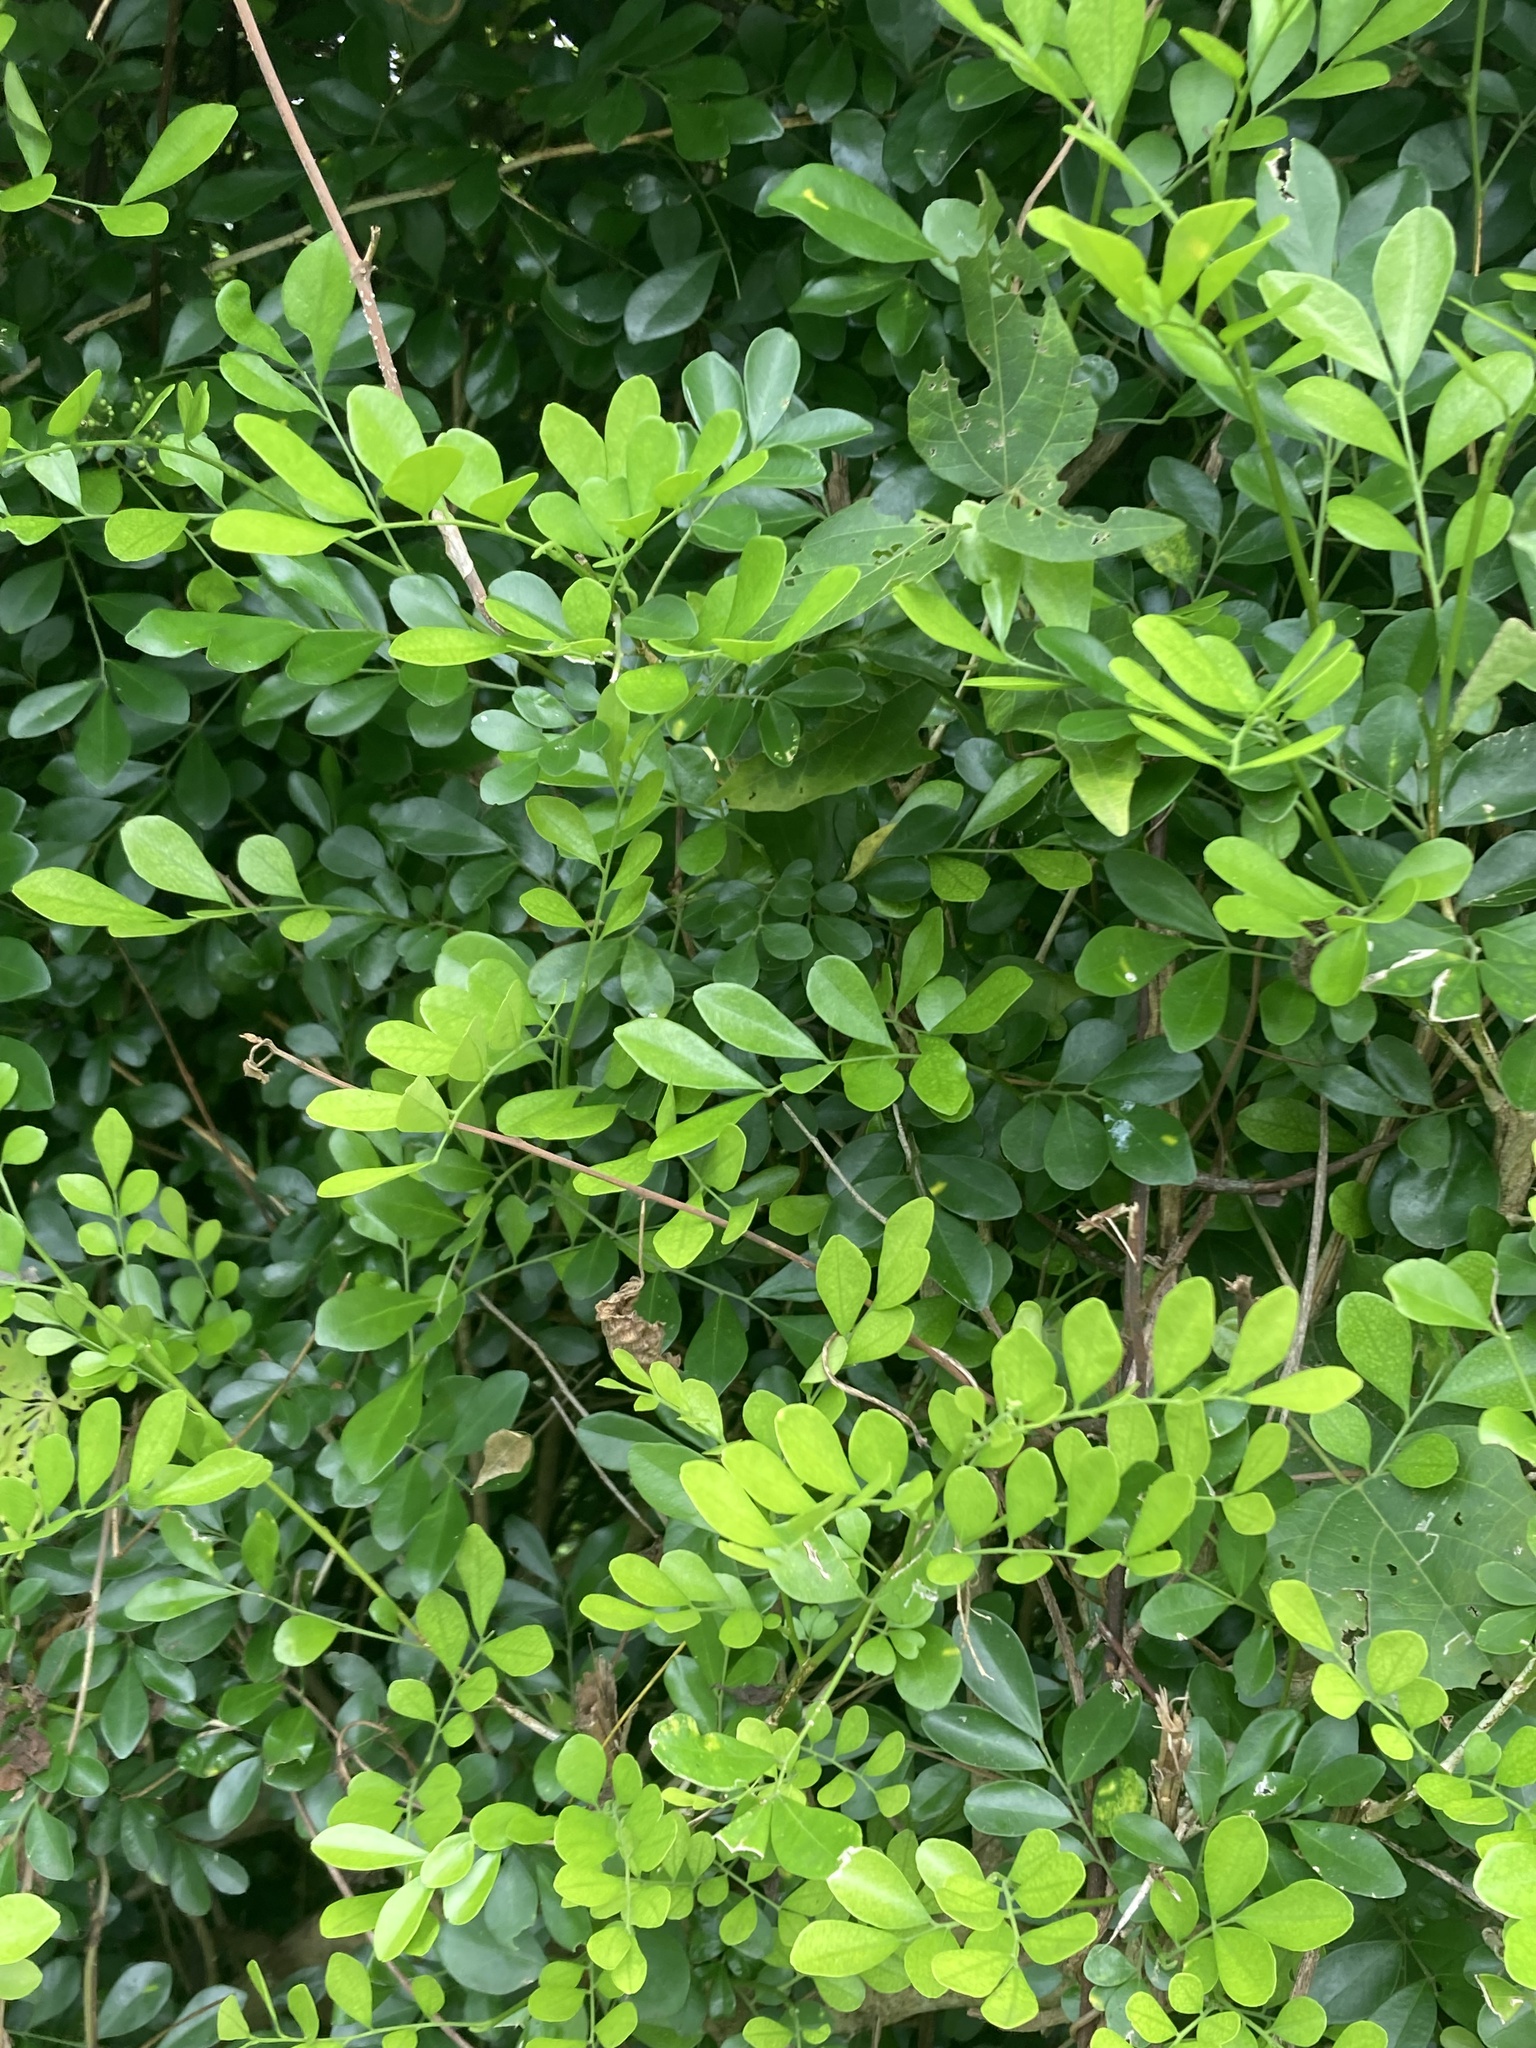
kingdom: Plantae
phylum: Tracheophyta
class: Magnoliopsida
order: Sapindales
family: Rutaceae
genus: Murraya
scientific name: Murraya paniculata
